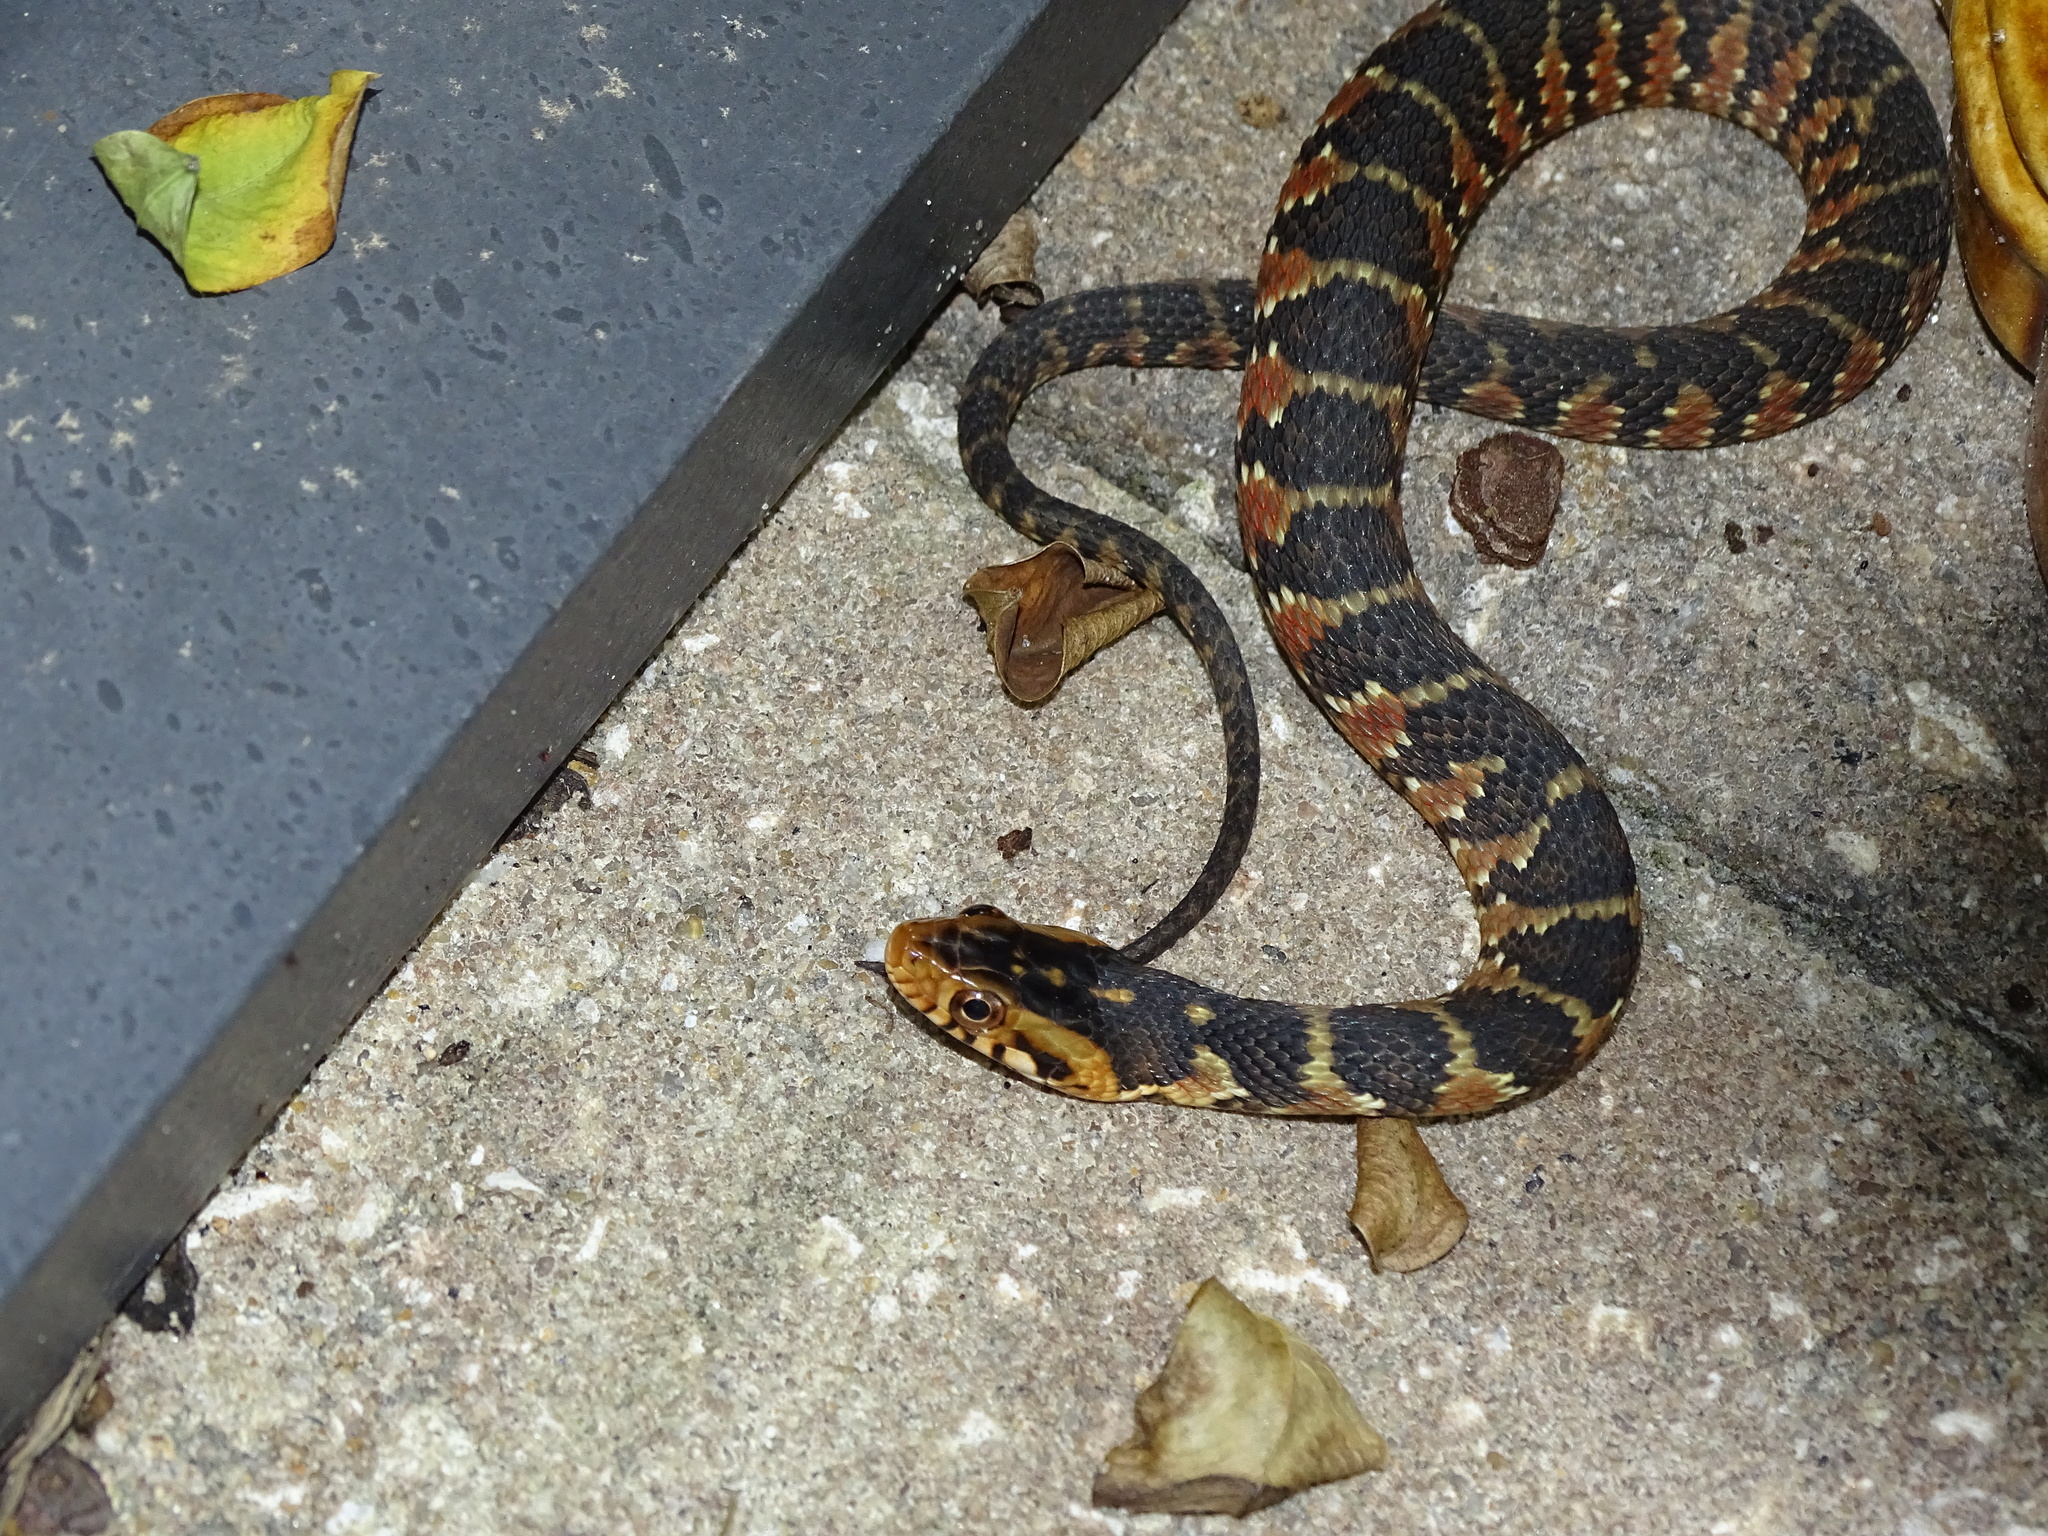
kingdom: Animalia
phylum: Chordata
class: Squamata
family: Colubridae
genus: Nerodia
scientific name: Nerodia fasciata
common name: Southern water snake
